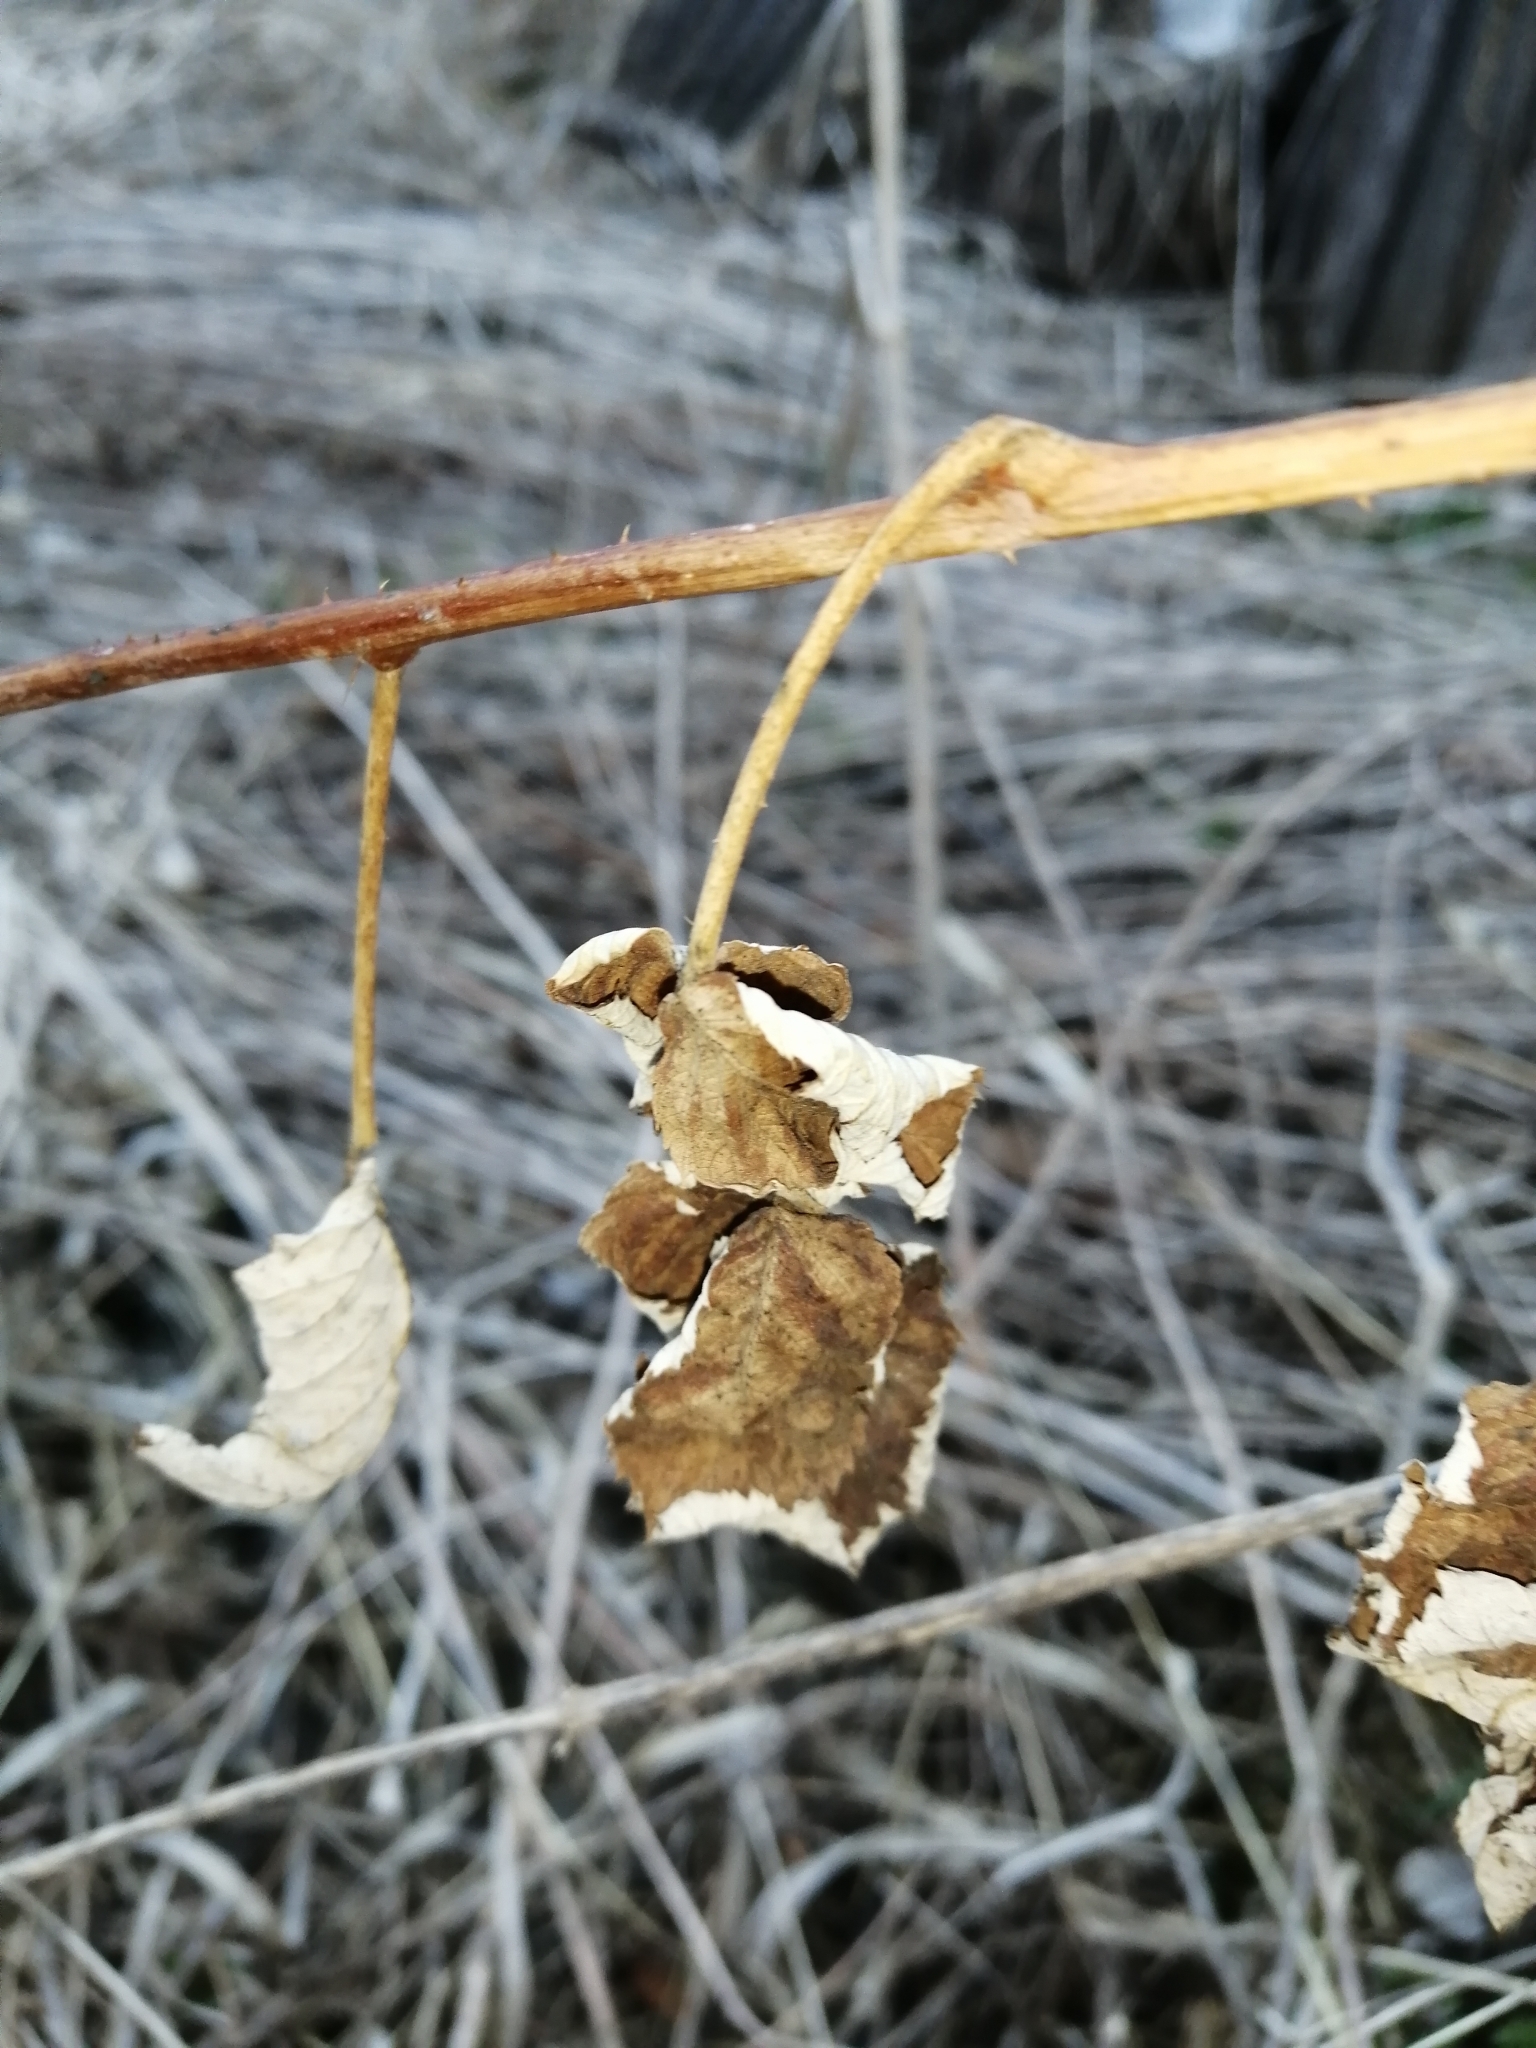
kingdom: Plantae
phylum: Tracheophyta
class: Magnoliopsida
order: Rosales
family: Rosaceae
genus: Rubus
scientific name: Rubus idaeus
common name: Raspberry
